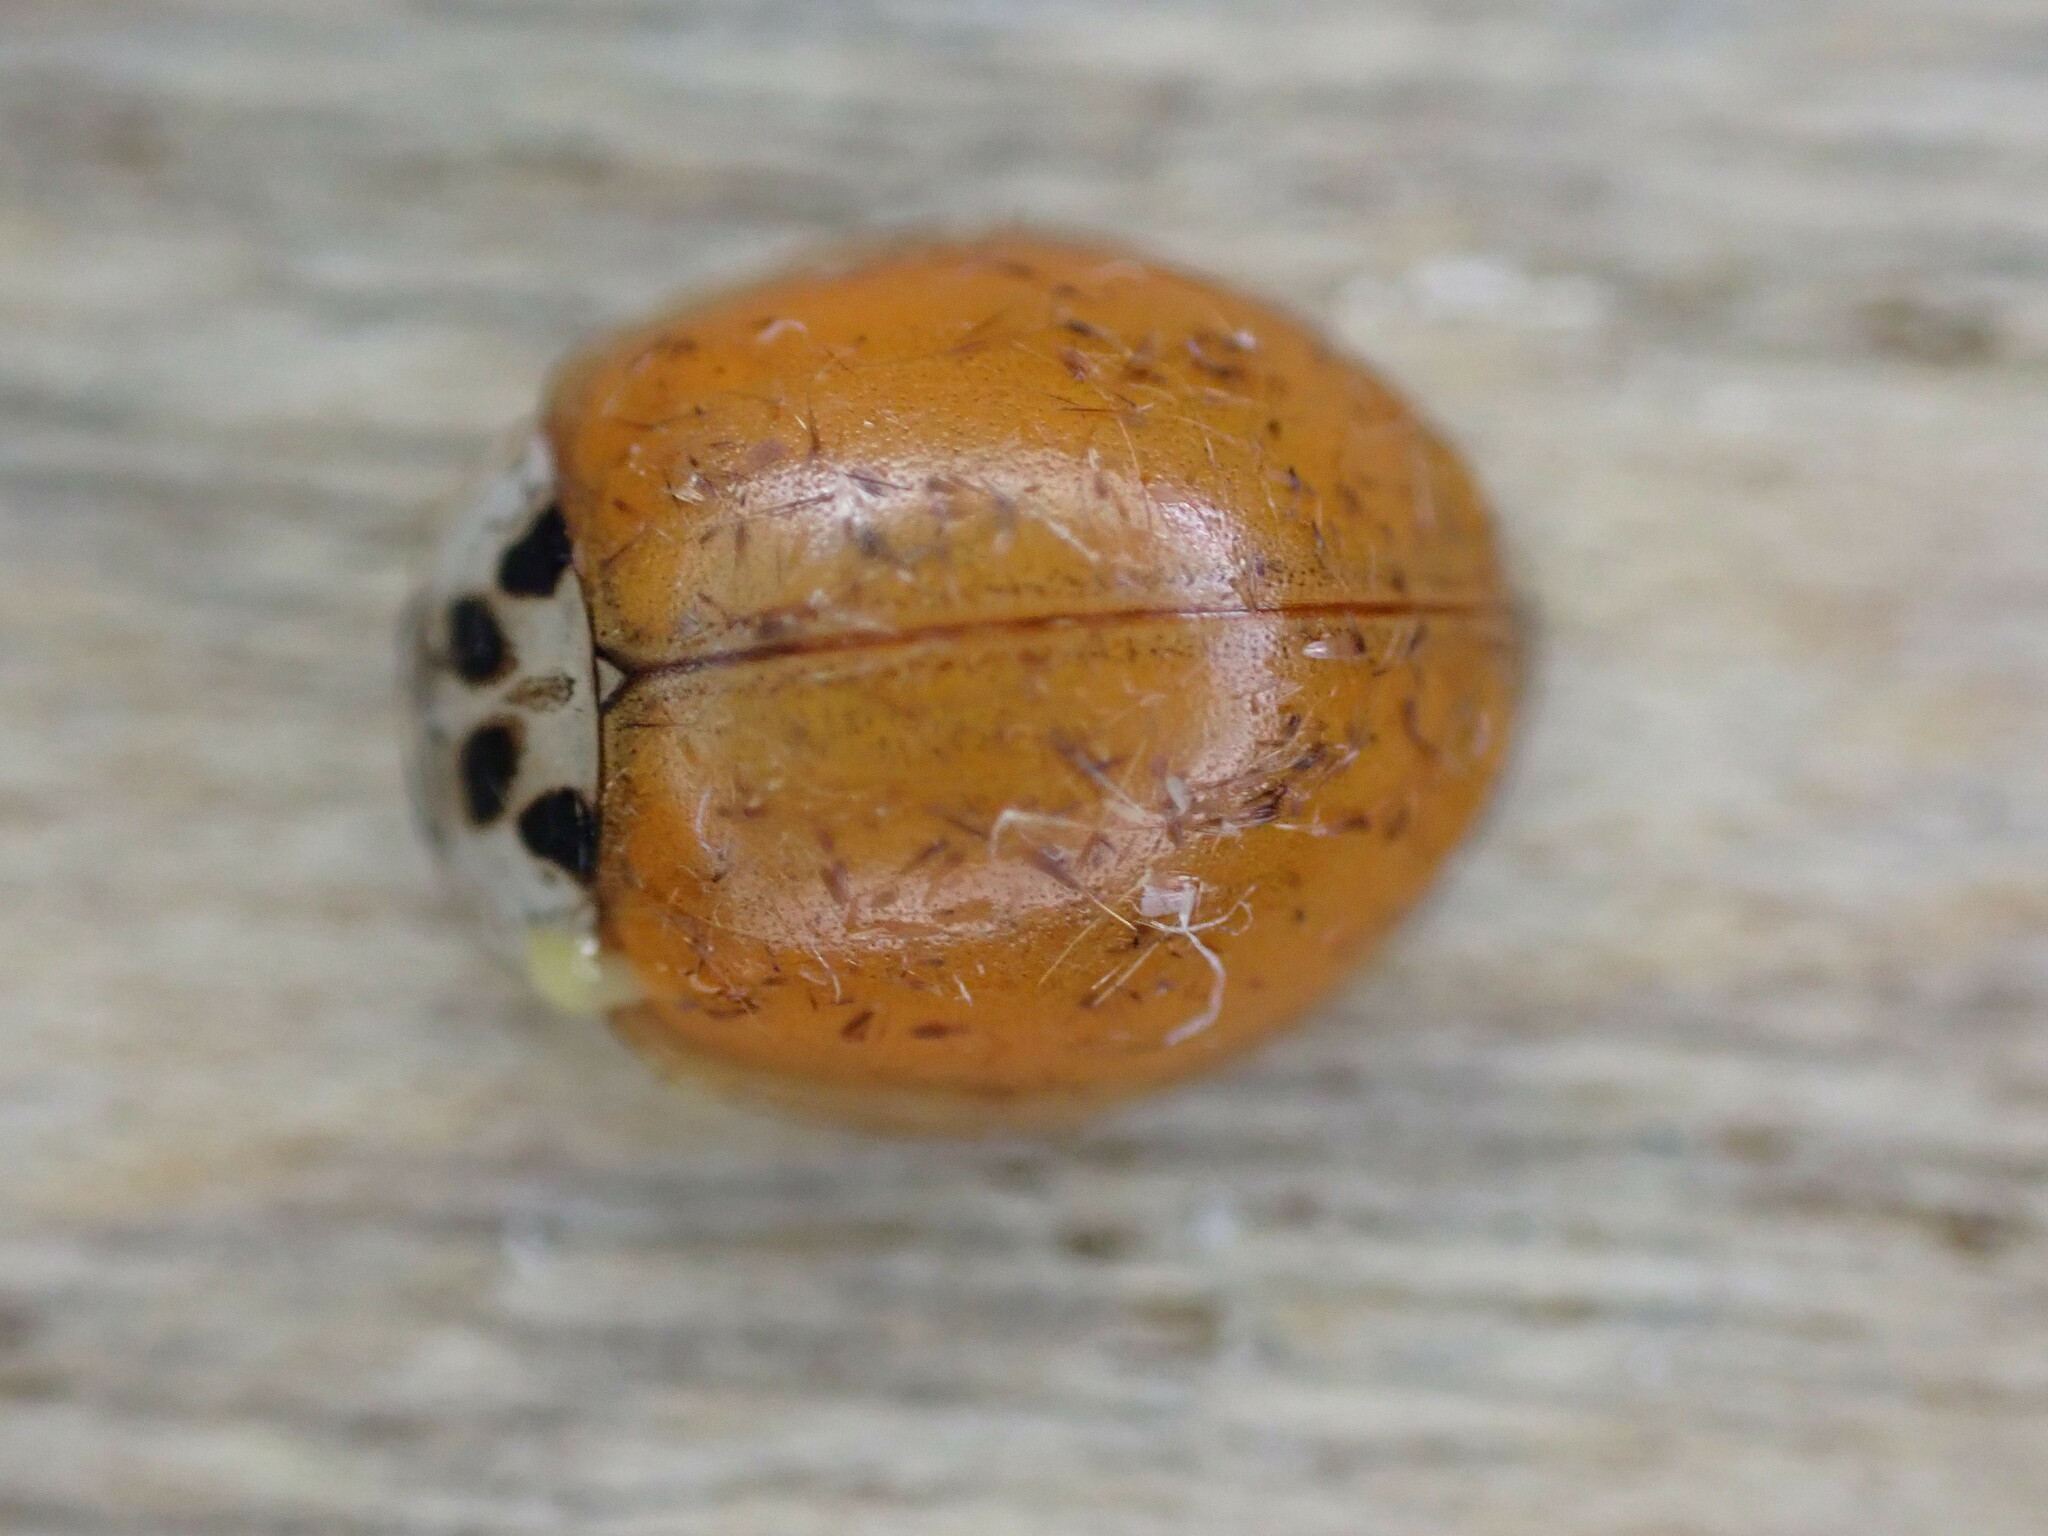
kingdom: Animalia
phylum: Arthropoda
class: Insecta
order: Coleoptera
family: Coccinellidae
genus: Adalia
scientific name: Adalia decempunctata
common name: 10-spot ladybird
